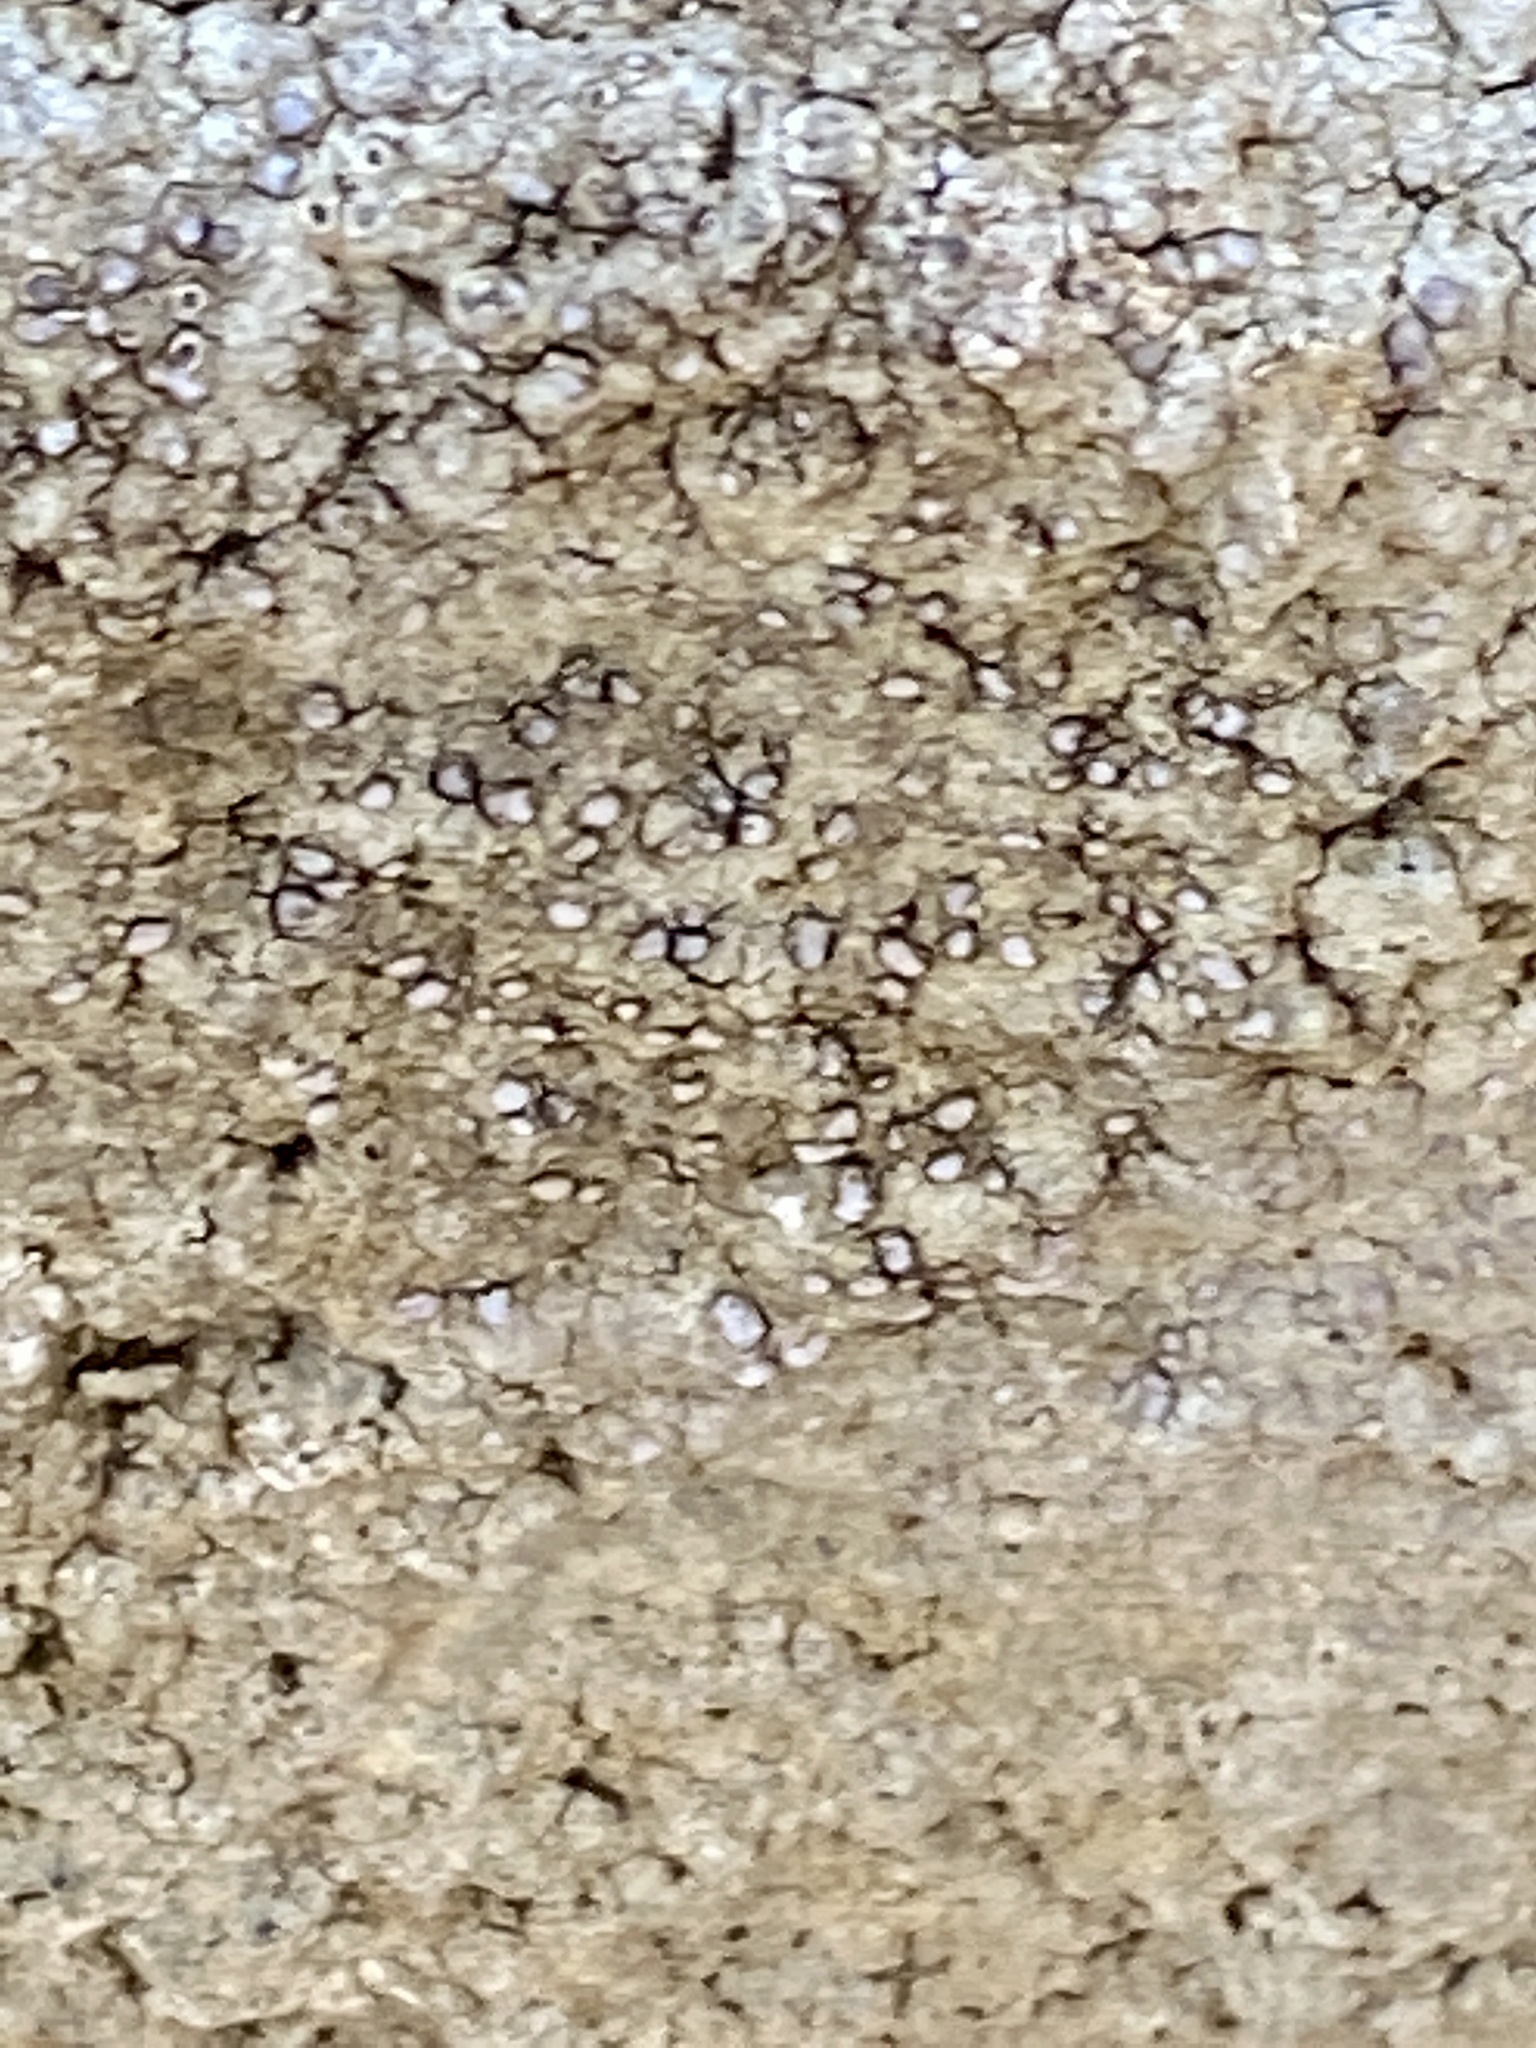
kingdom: Fungi
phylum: Ascomycota
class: Lecanoromycetes
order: Lecideales
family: Lecideaceae
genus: Porpidia
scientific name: Porpidia albocaerulescens
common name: Smokey-eyed boulder lichen
